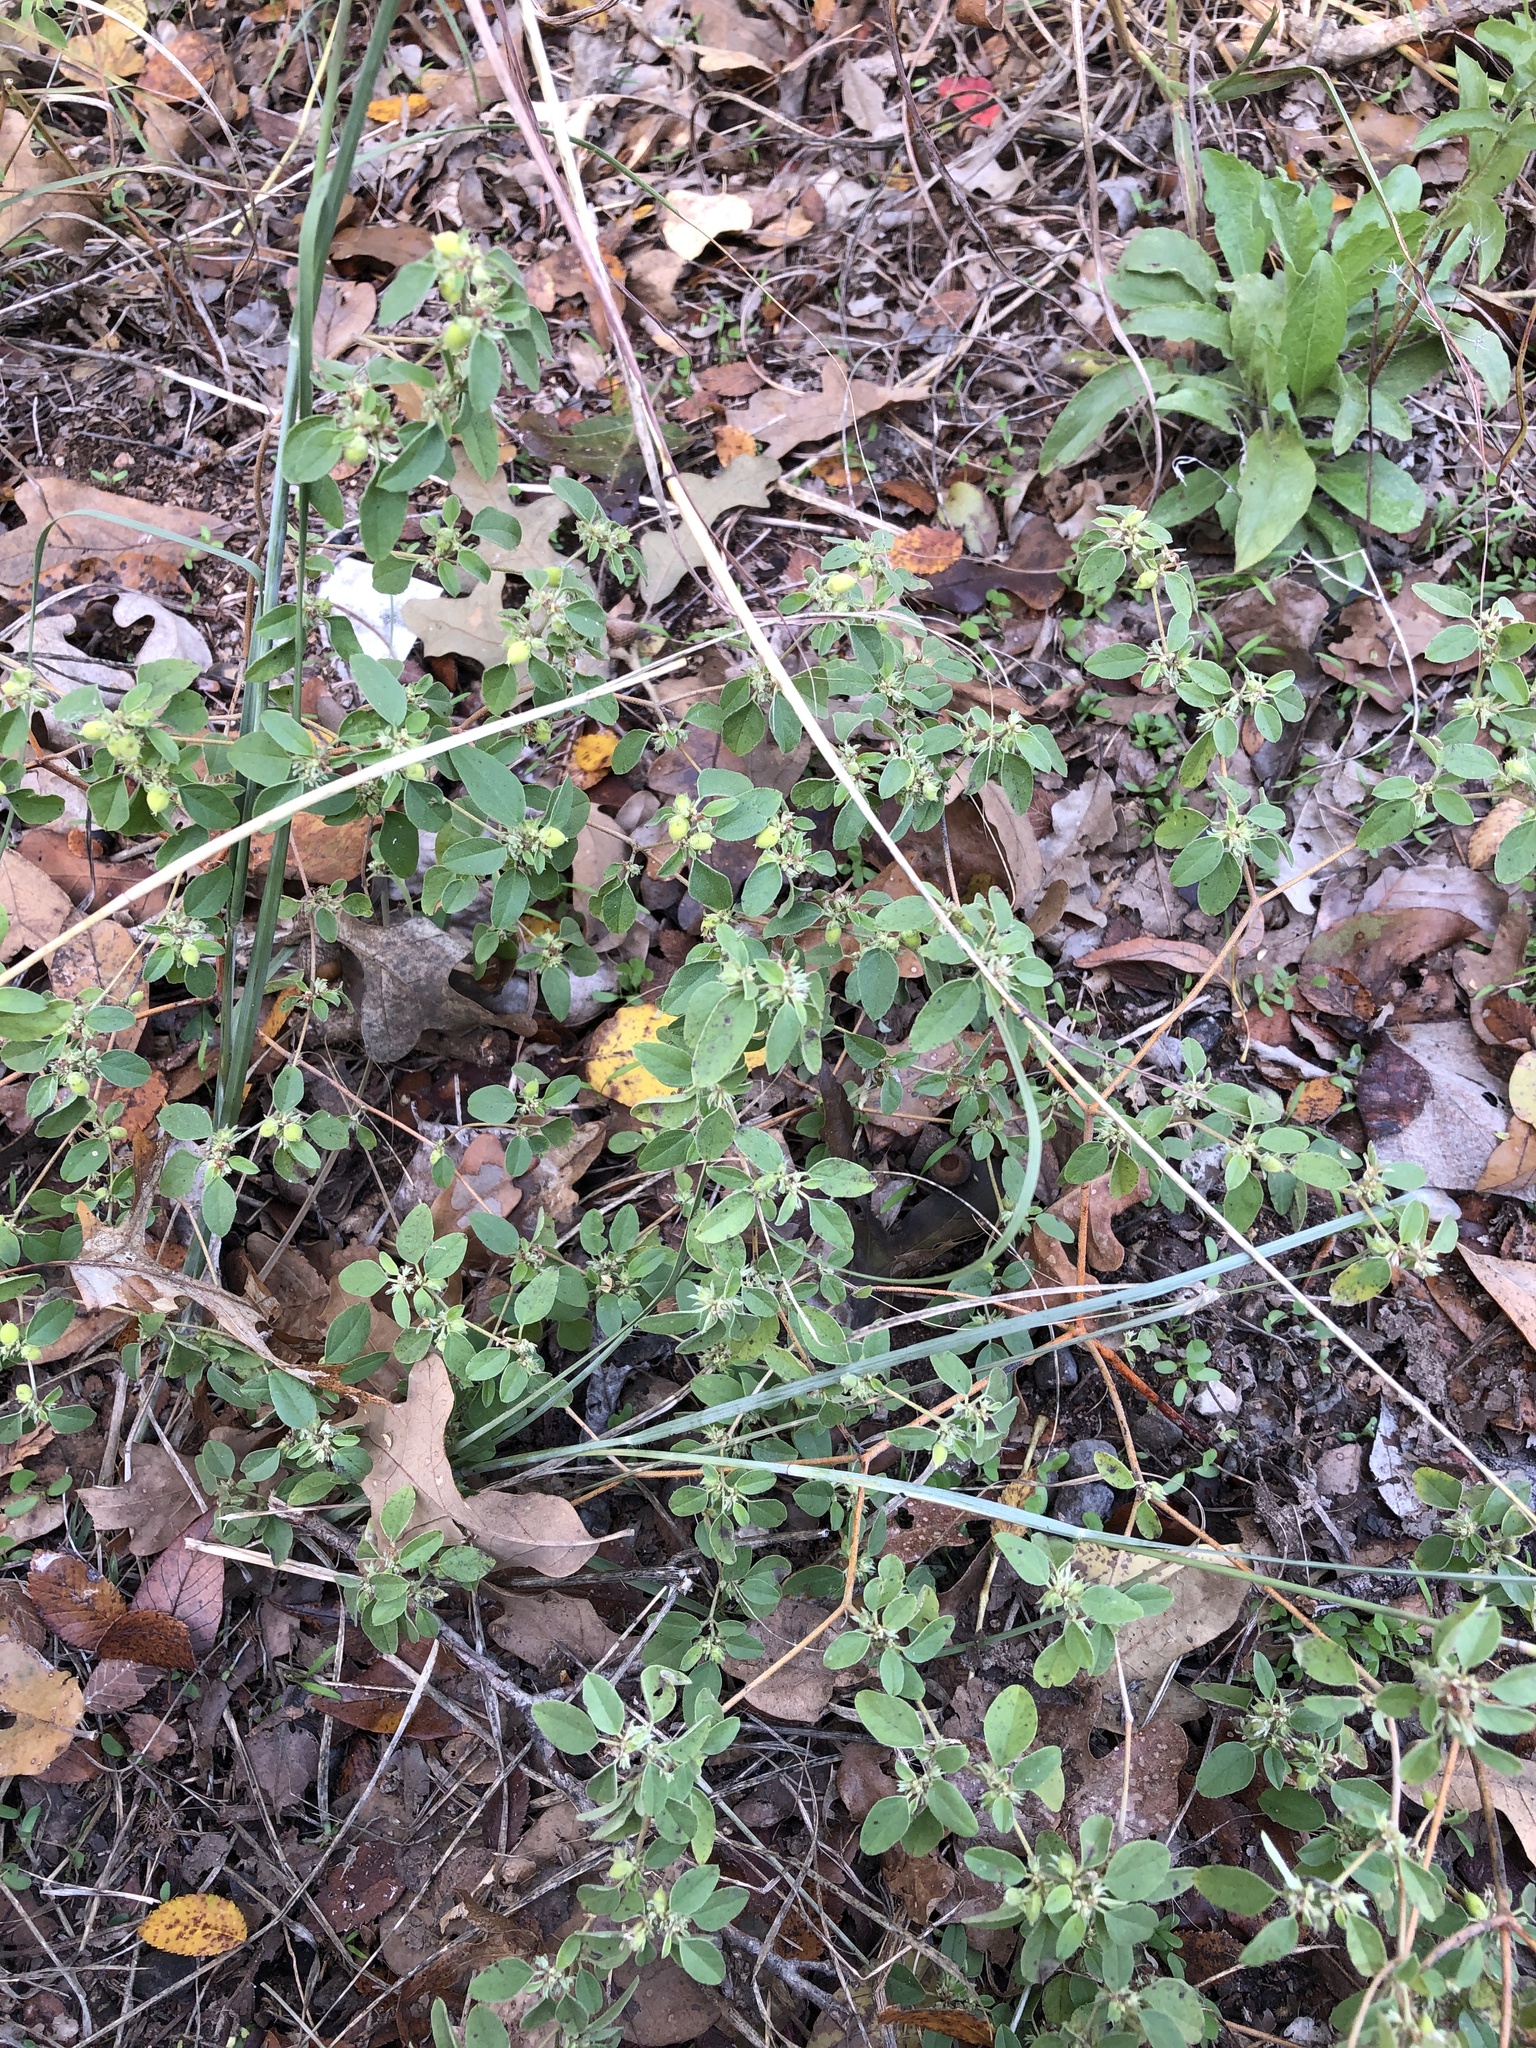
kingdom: Plantae
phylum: Tracheophyta
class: Magnoliopsida
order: Malpighiales
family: Euphorbiaceae
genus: Croton
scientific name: Croton monanthogynus
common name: One-seed croton
